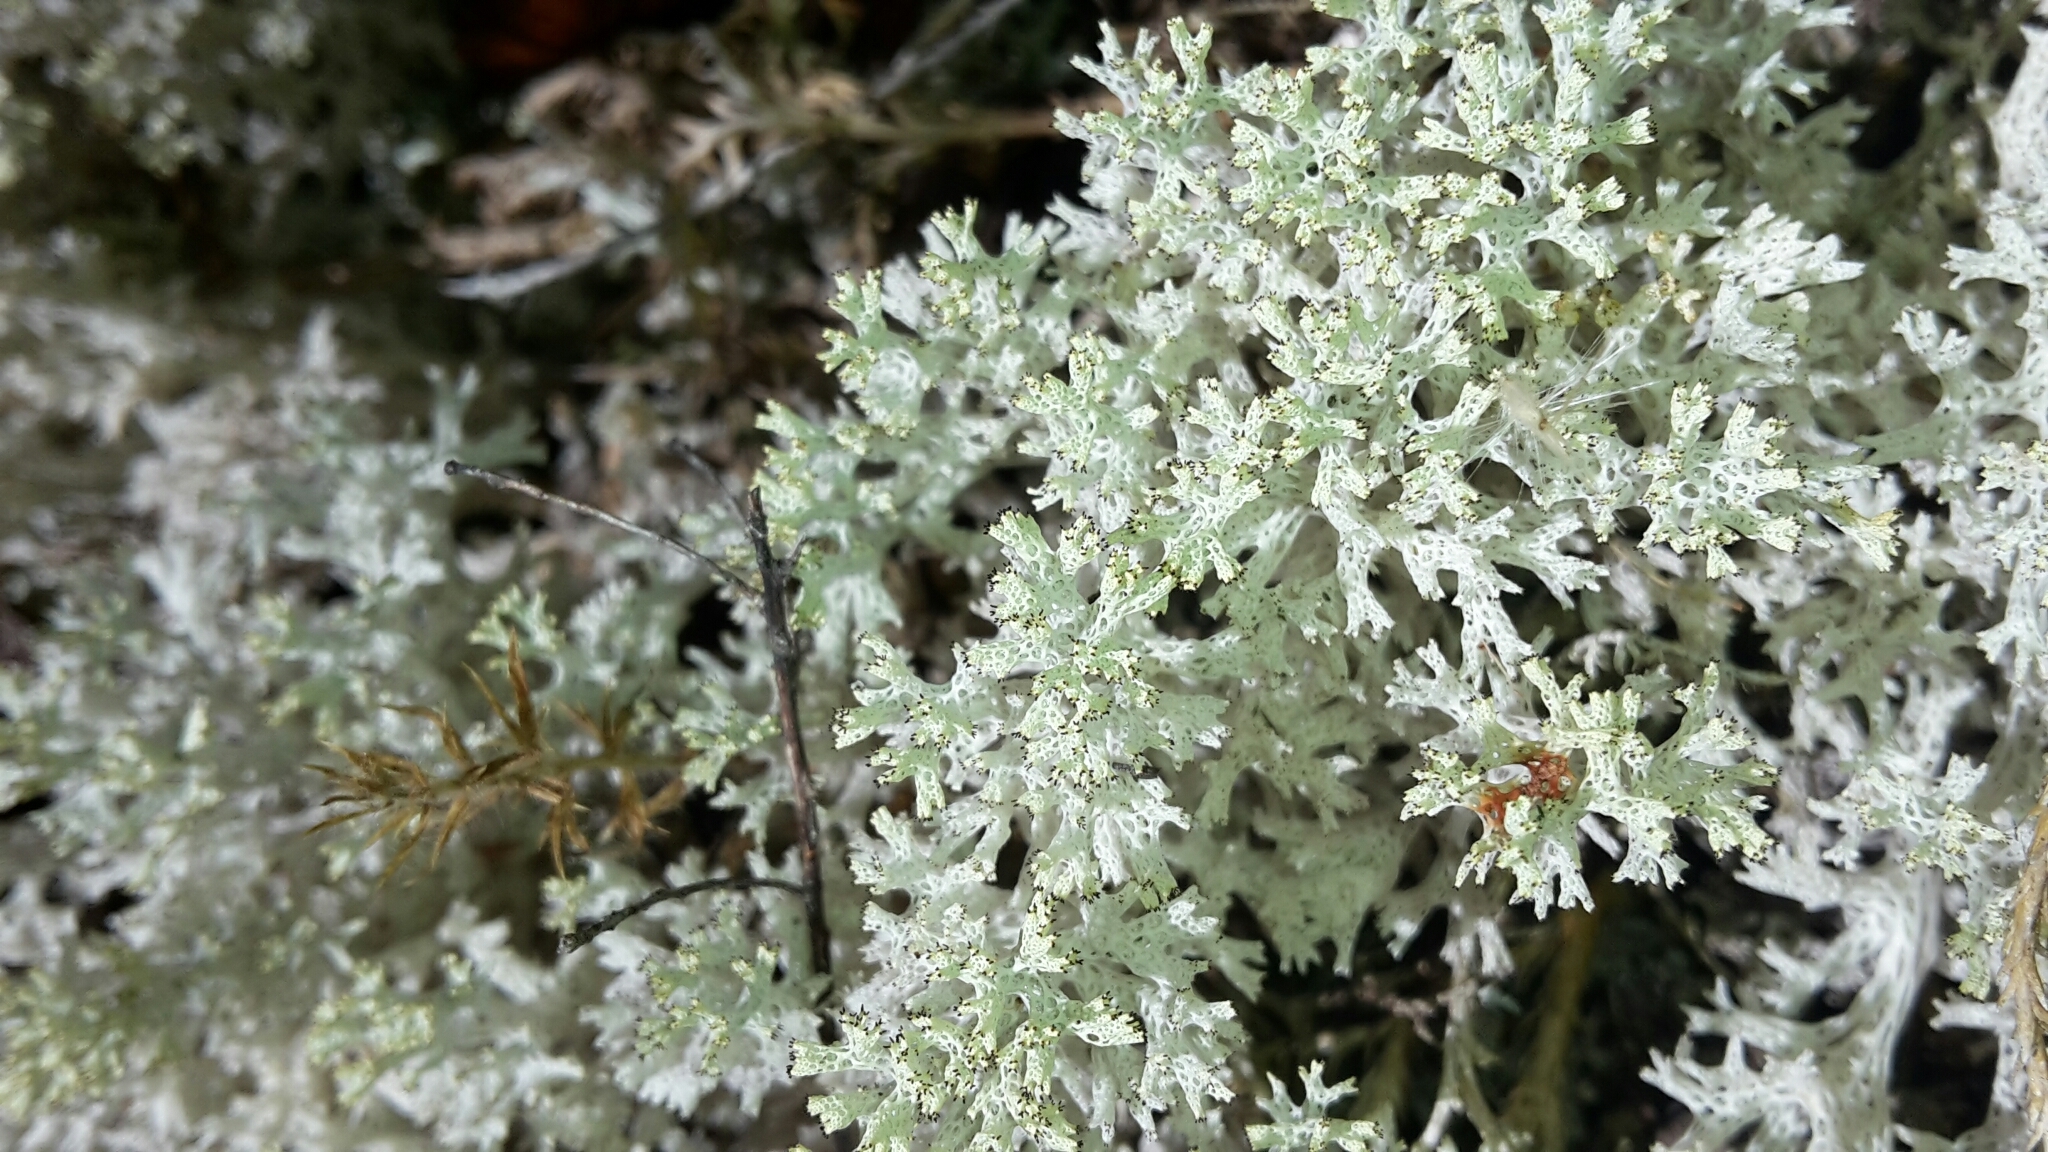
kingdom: Fungi
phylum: Ascomycota
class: Lecanoromycetes
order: Lecanorales
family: Cladoniaceae
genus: Pulchrocladia
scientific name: Pulchrocladia retipora
